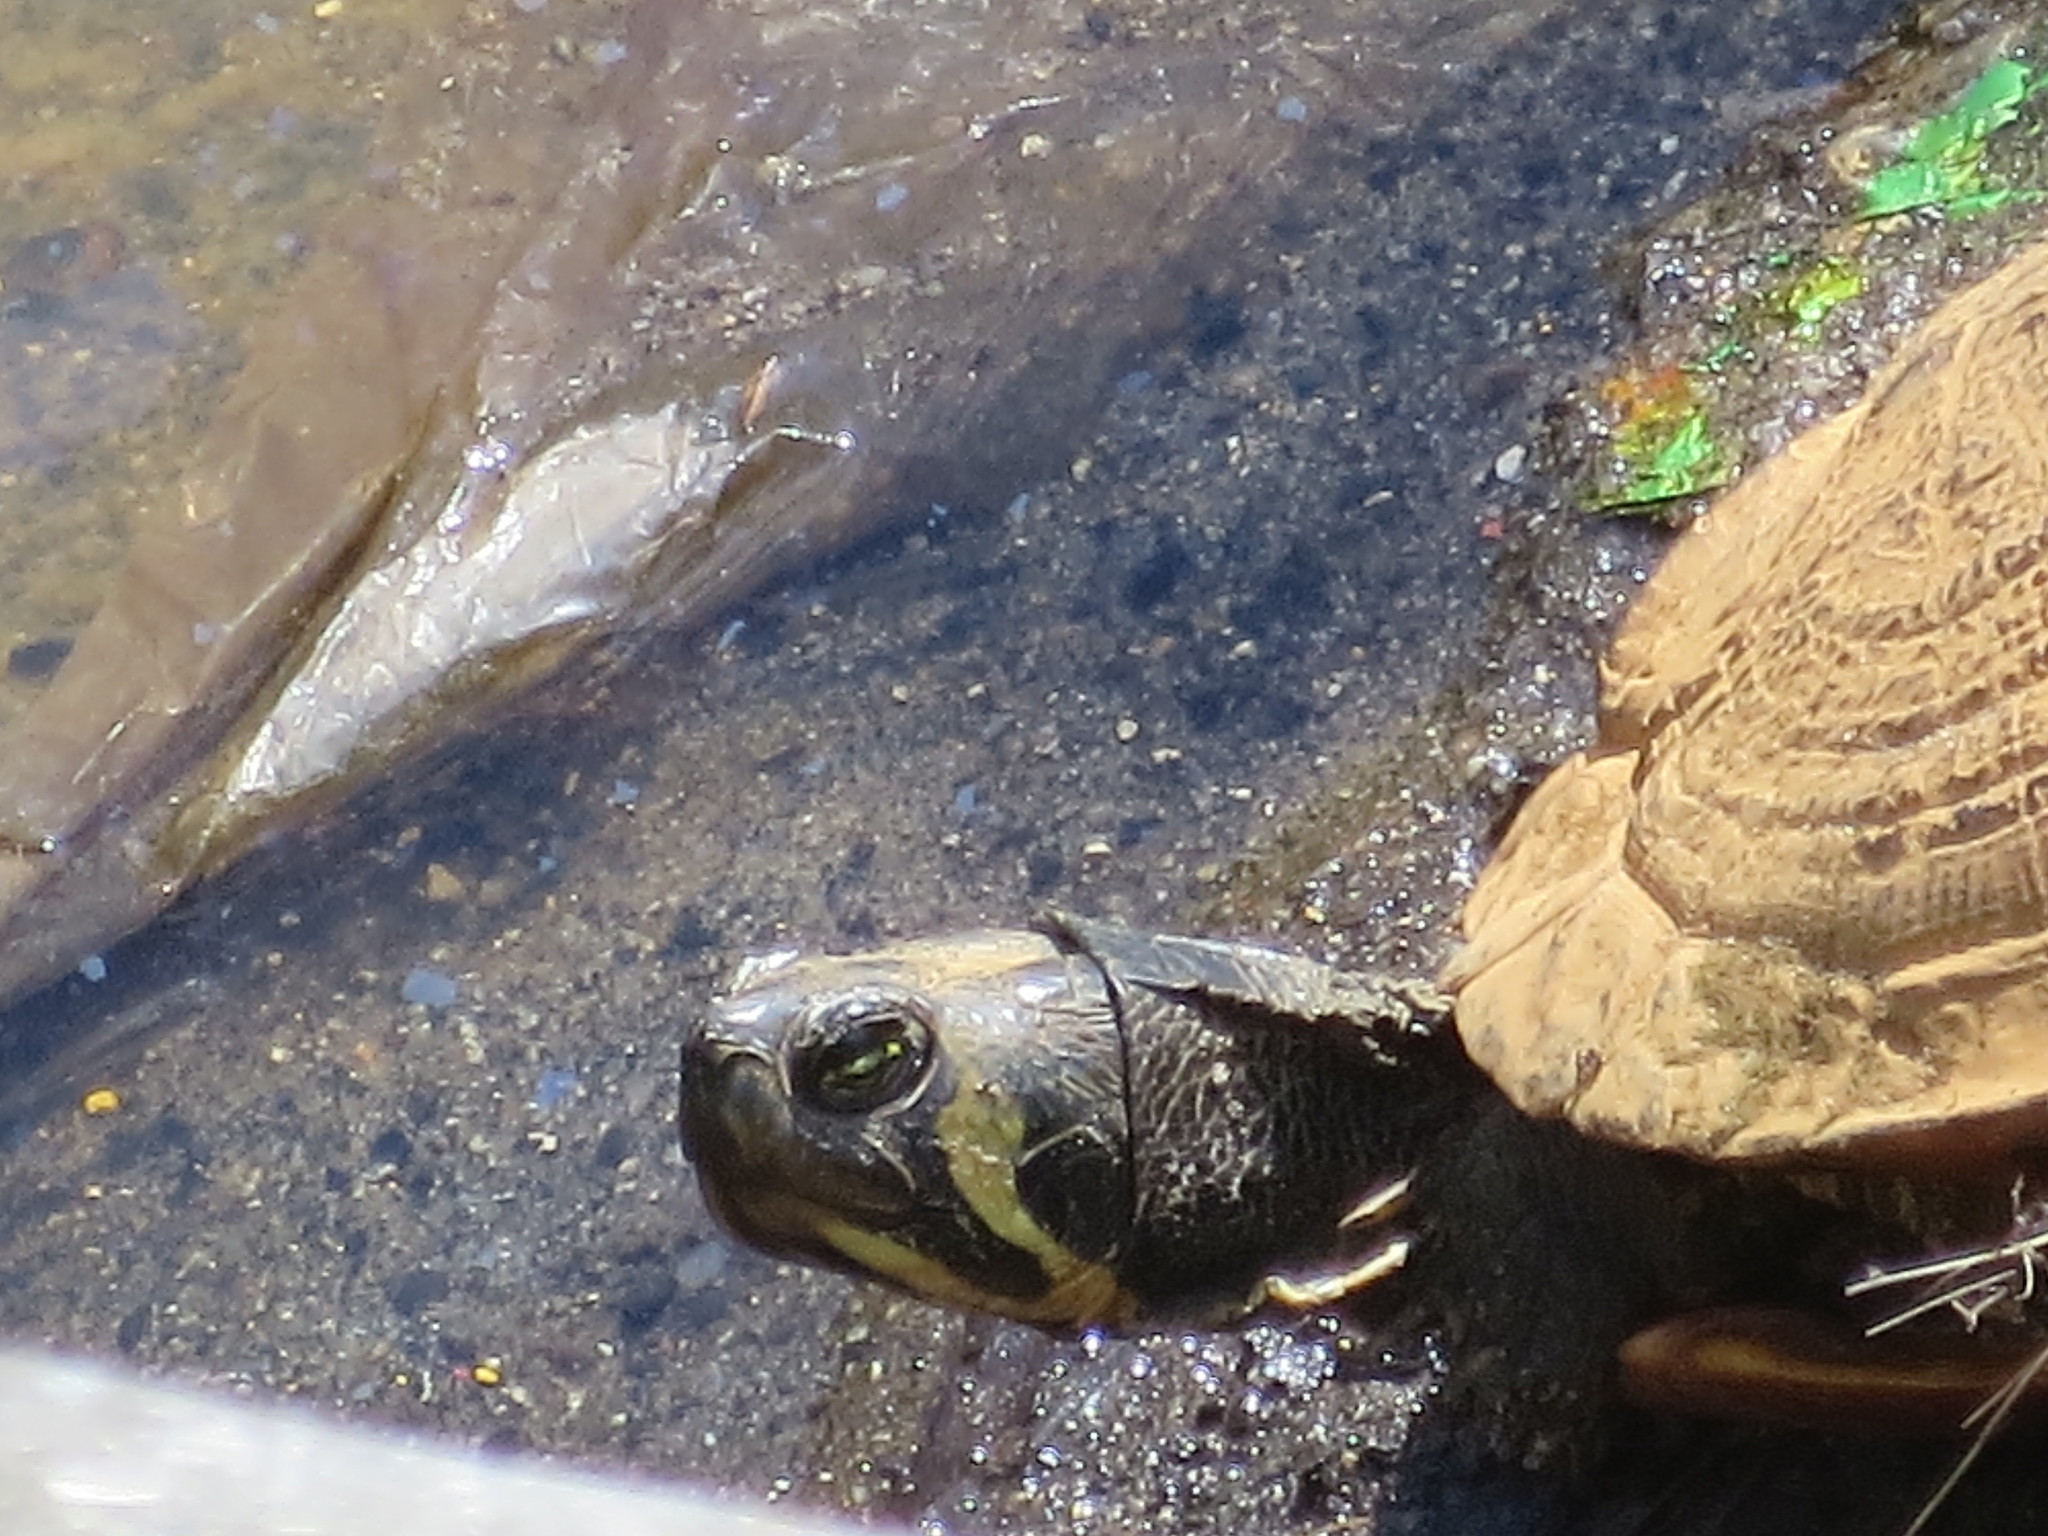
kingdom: Animalia
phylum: Chordata
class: Testudines
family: Emydidae
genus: Trachemys
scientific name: Trachemys scripta
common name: Slider
